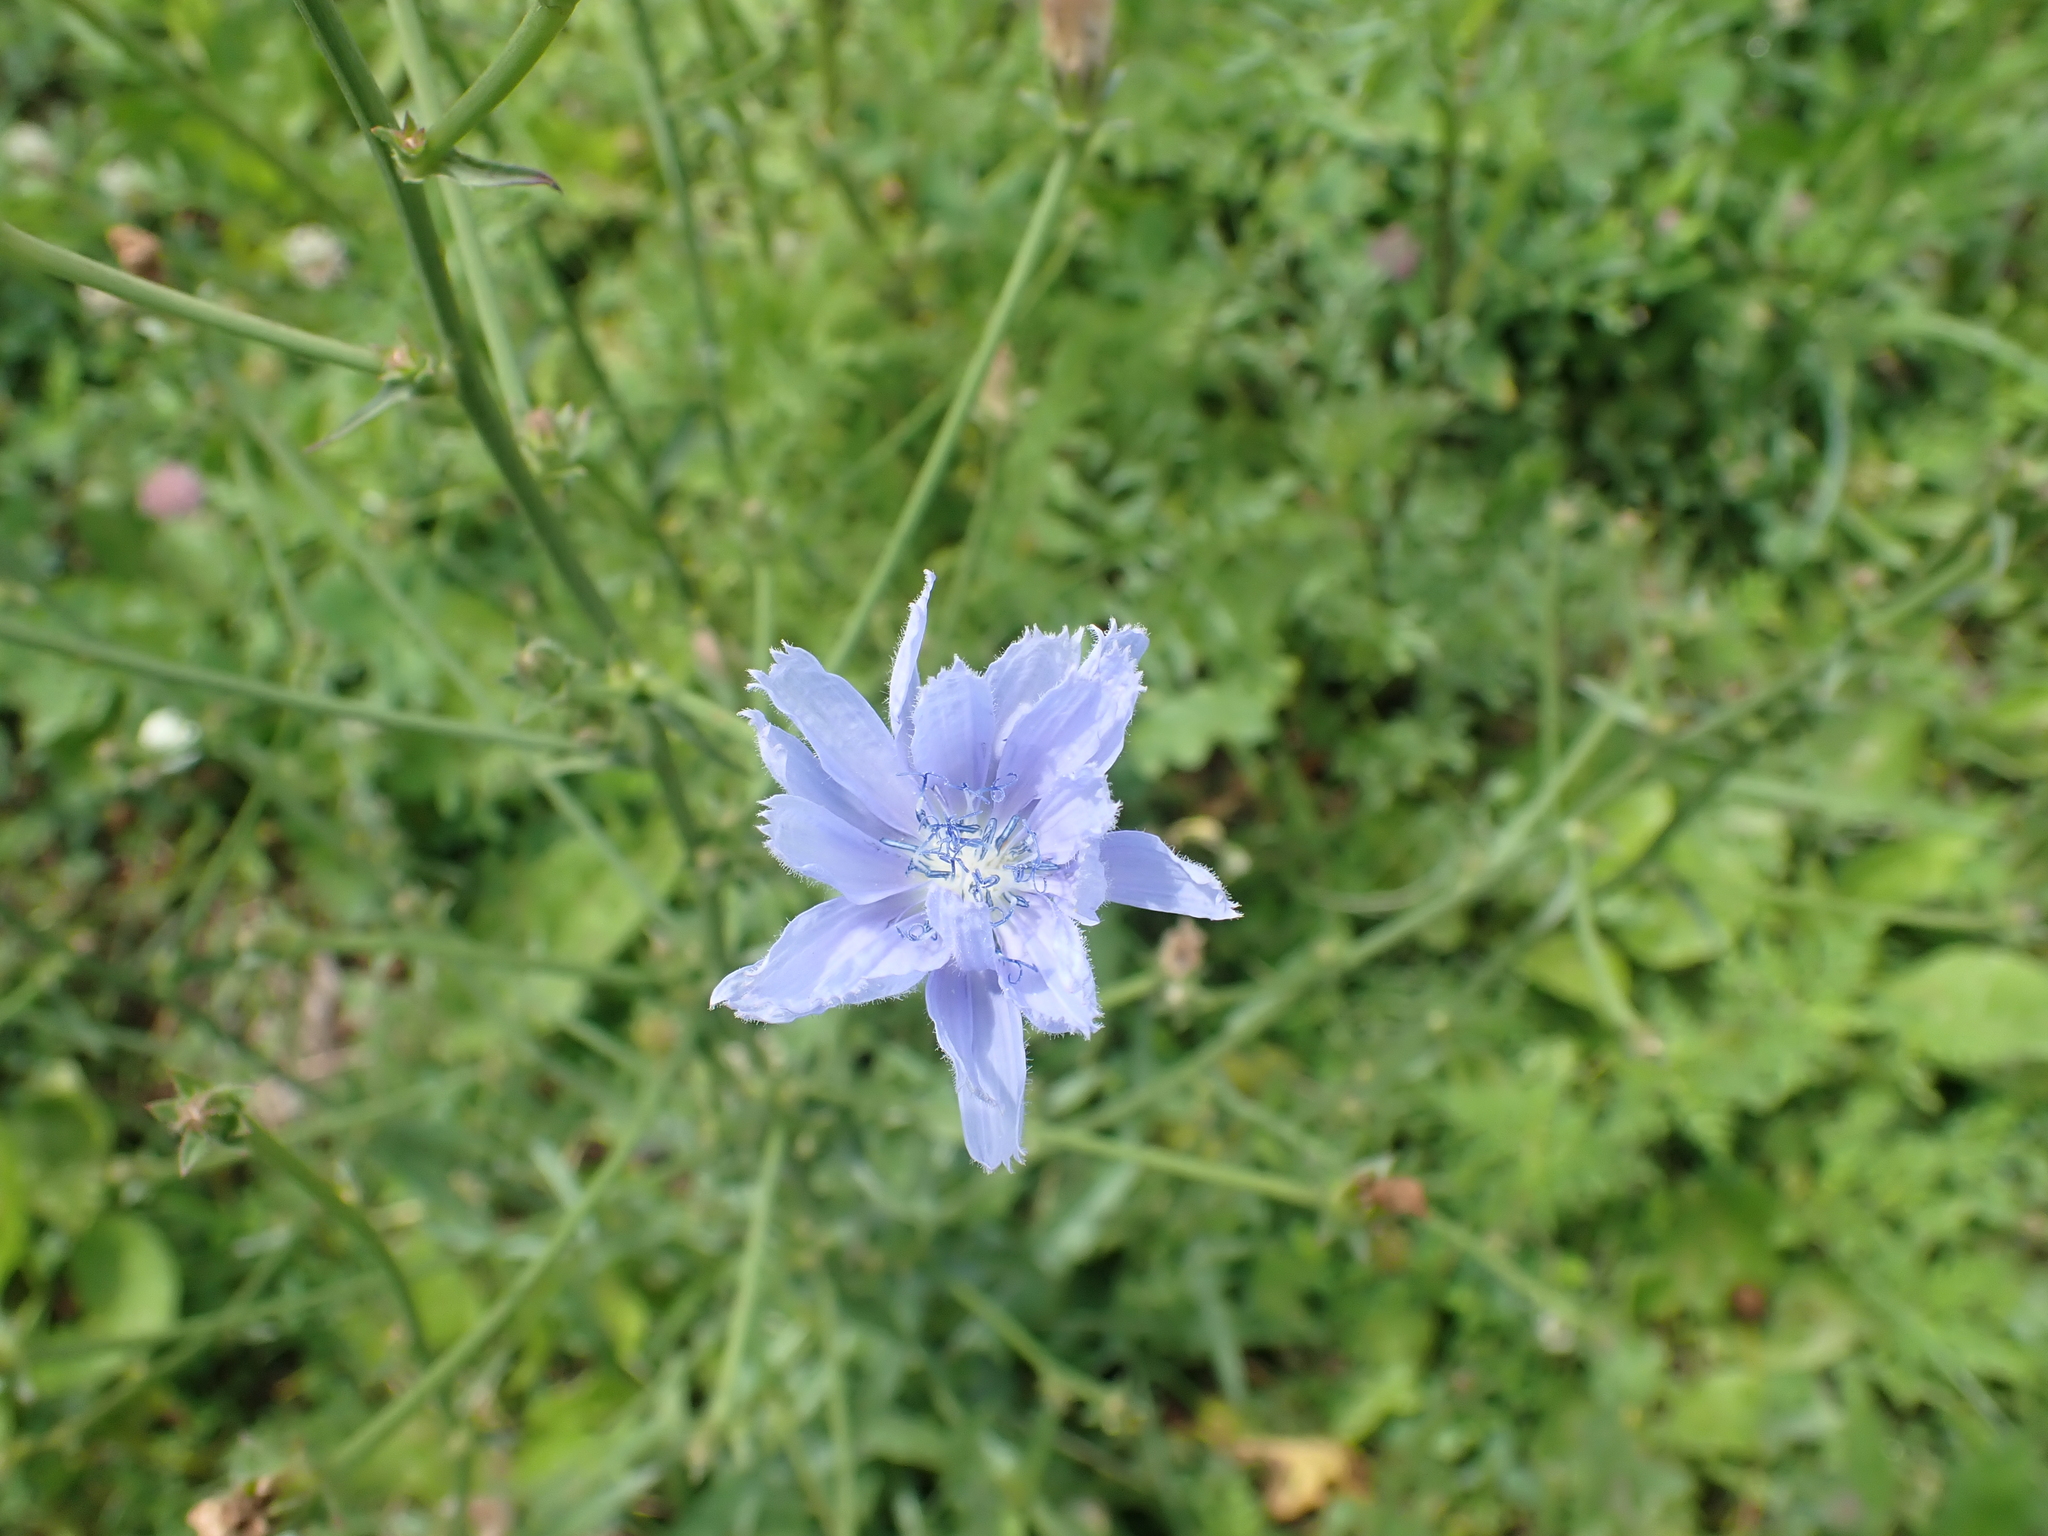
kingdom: Plantae
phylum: Tracheophyta
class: Magnoliopsida
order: Asterales
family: Asteraceae
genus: Cichorium
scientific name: Cichorium intybus
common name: Chicory
